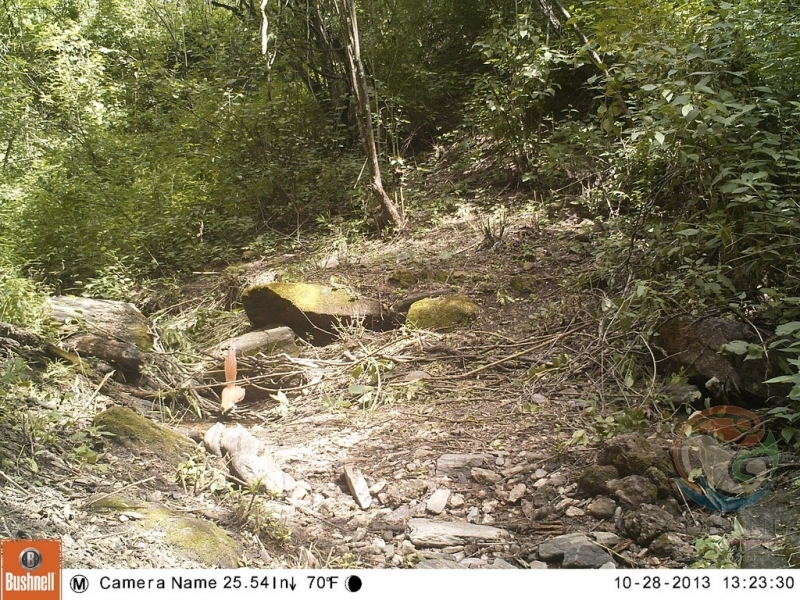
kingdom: Animalia
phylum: Chordata
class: Aves
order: Cuculiformes
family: Cuculidae
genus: Piaya
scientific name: Piaya cayana
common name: Squirrel cuckoo
